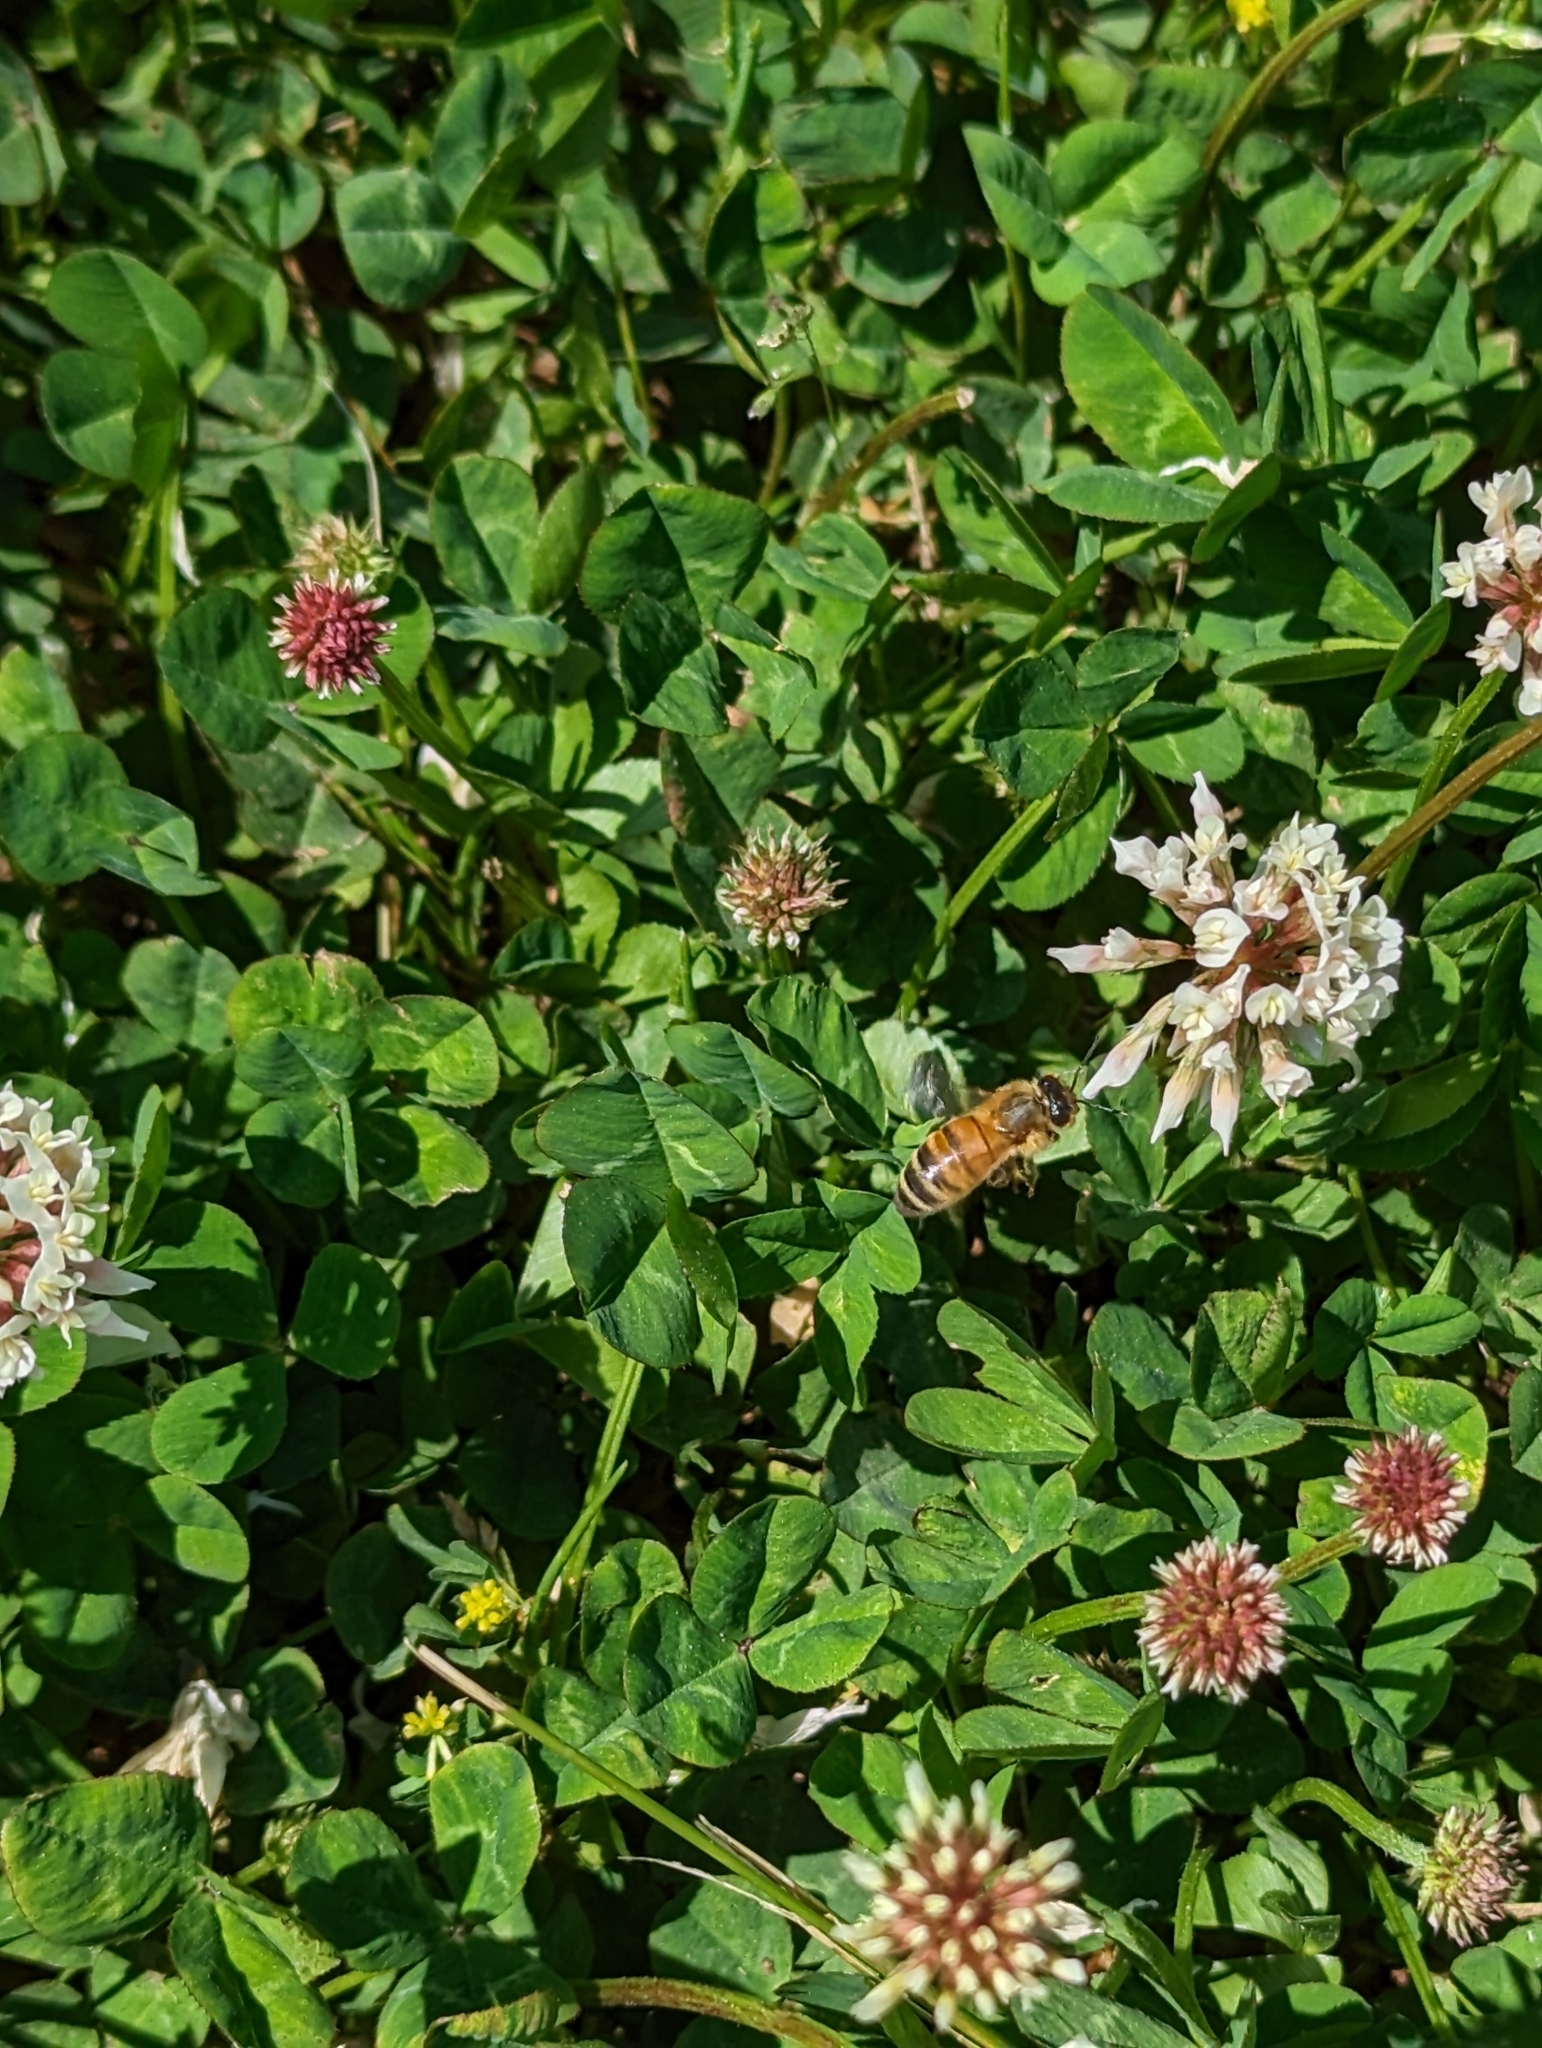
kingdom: Animalia
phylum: Arthropoda
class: Insecta
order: Hymenoptera
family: Apidae
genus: Apis
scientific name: Apis mellifera
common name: Honey bee
